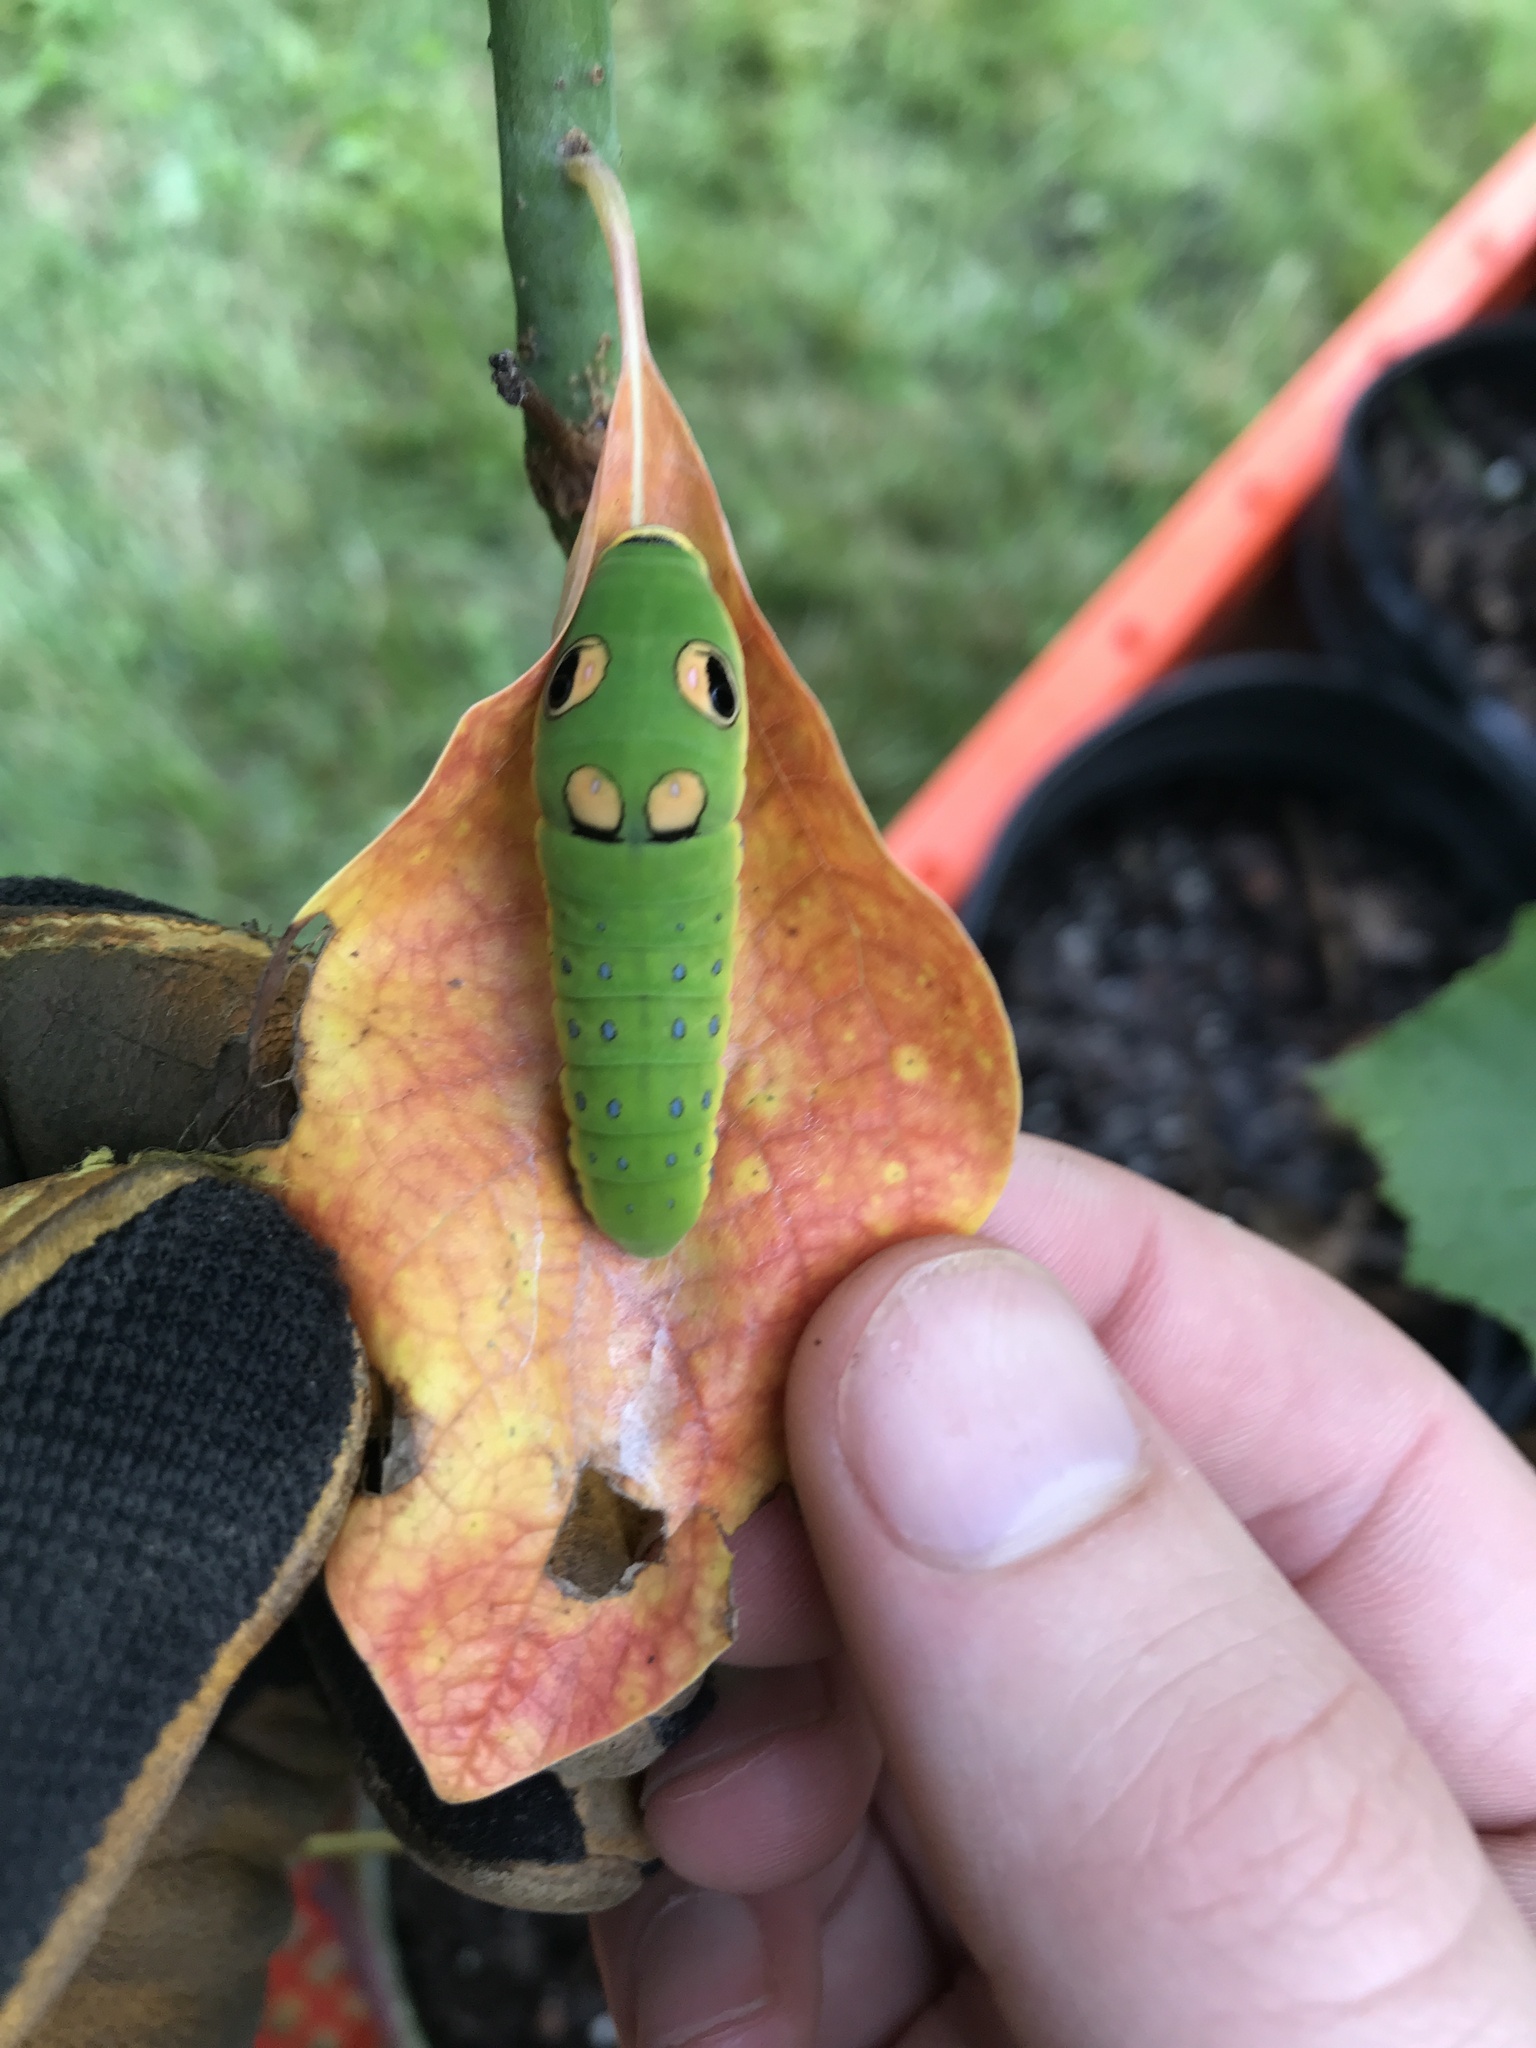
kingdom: Animalia
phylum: Arthropoda
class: Insecta
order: Lepidoptera
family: Papilionidae
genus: Papilio
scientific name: Papilio troilus
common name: Spicebush swallowtail
